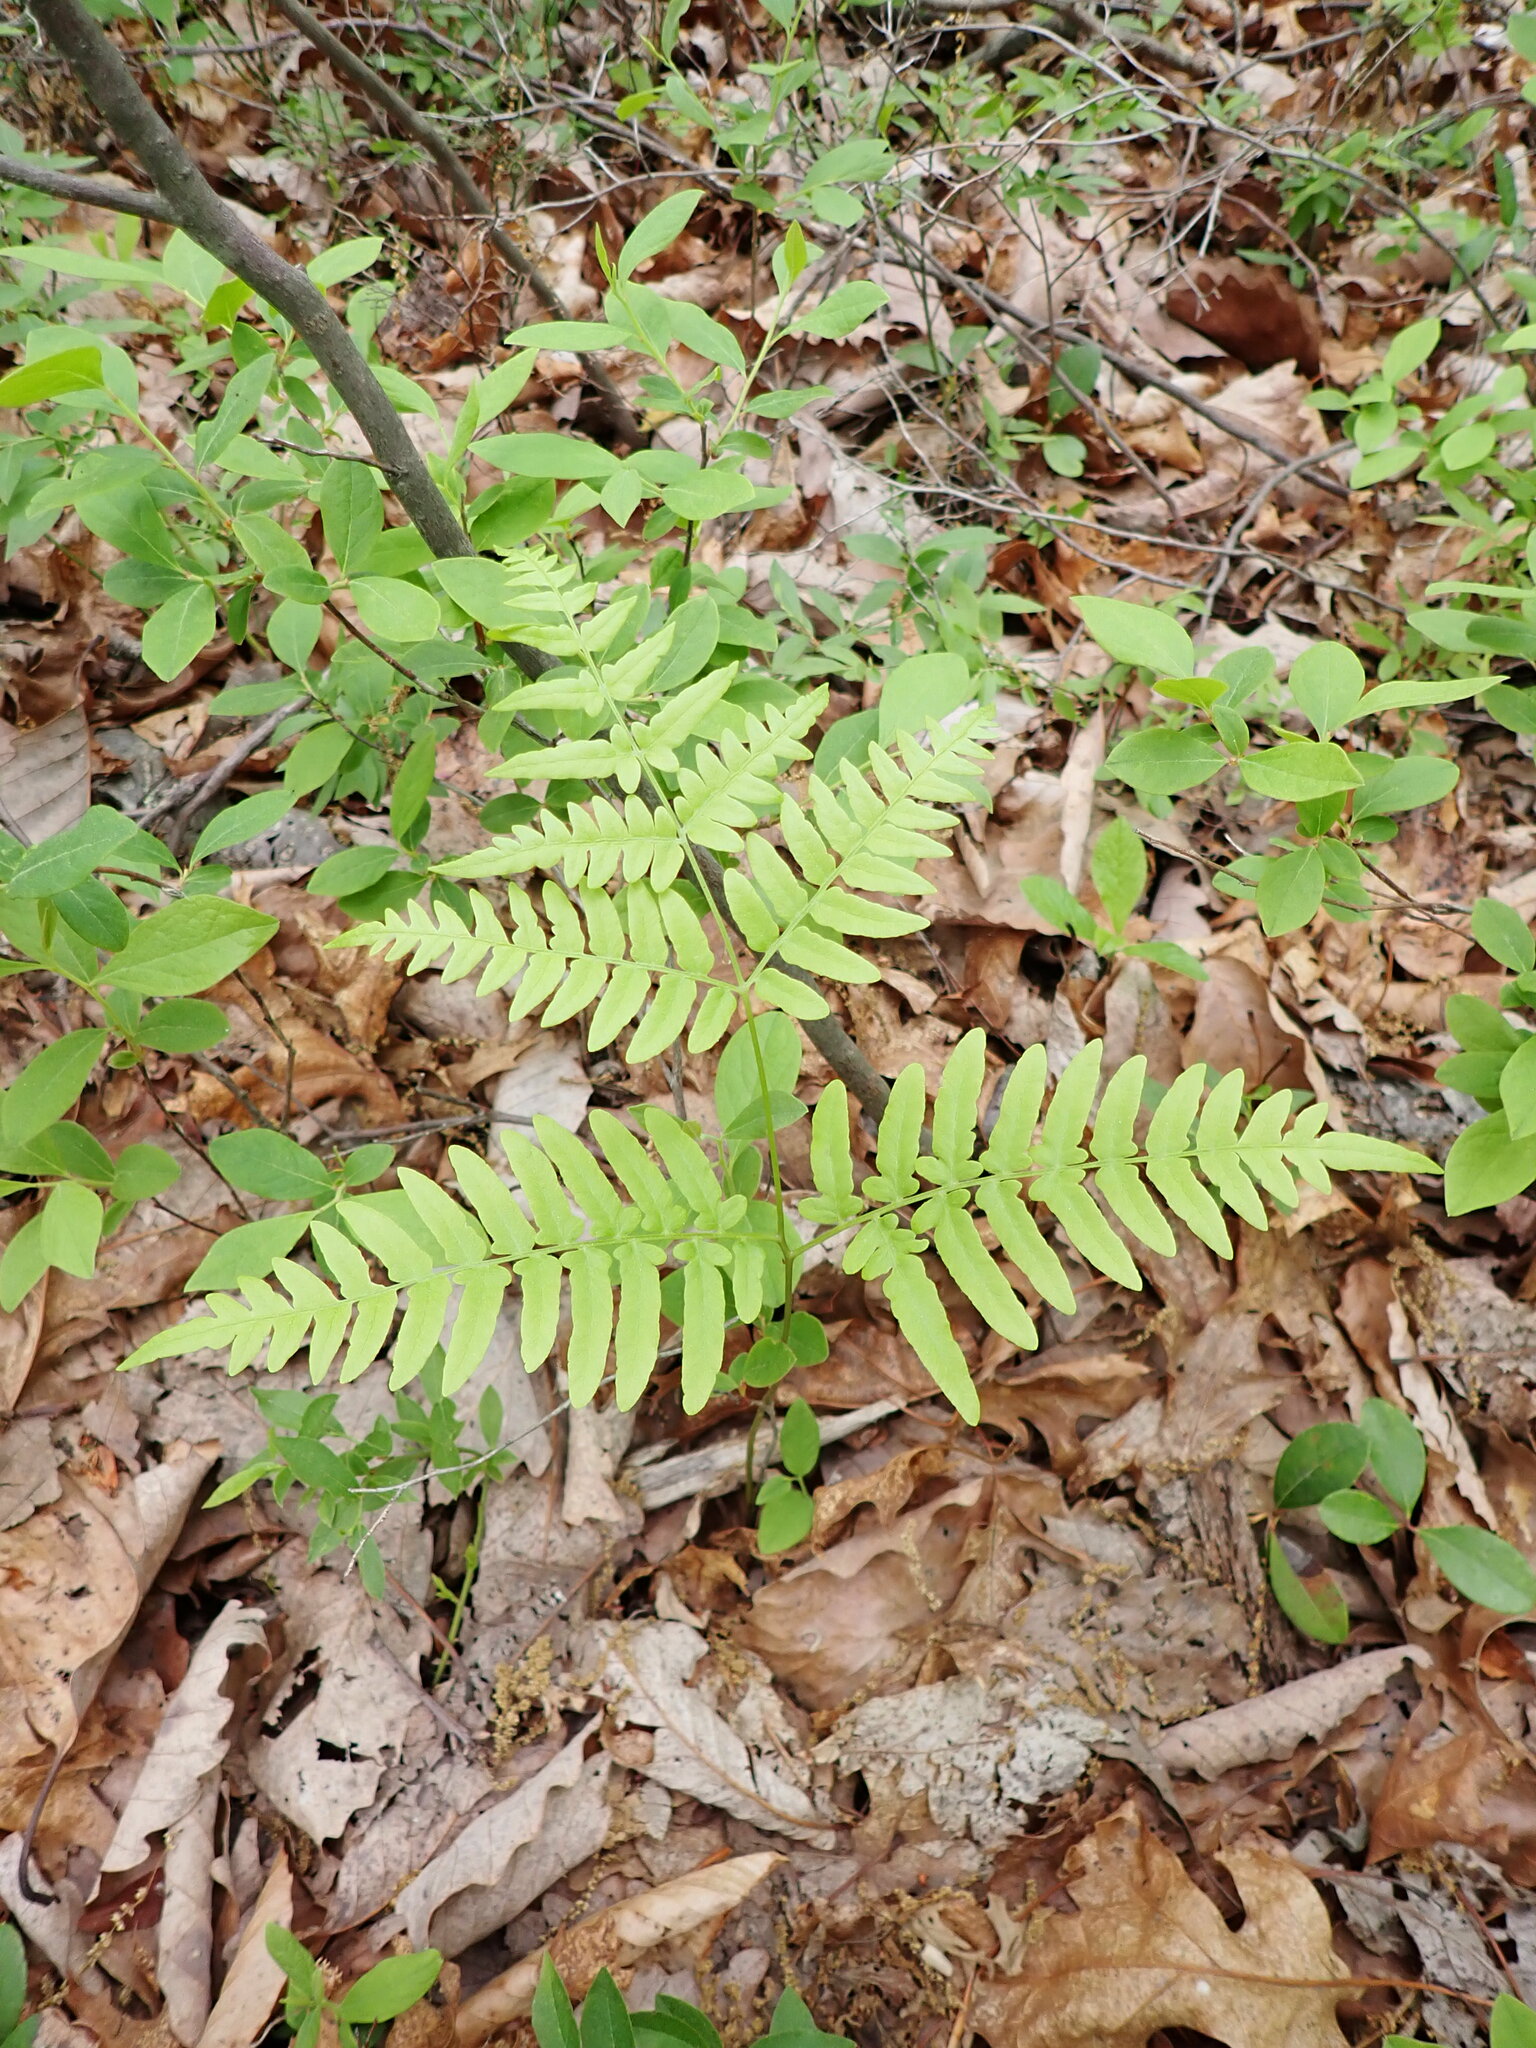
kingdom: Plantae
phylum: Tracheophyta
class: Polypodiopsida
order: Polypodiales
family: Dennstaedtiaceae
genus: Pteridium
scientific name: Pteridium
